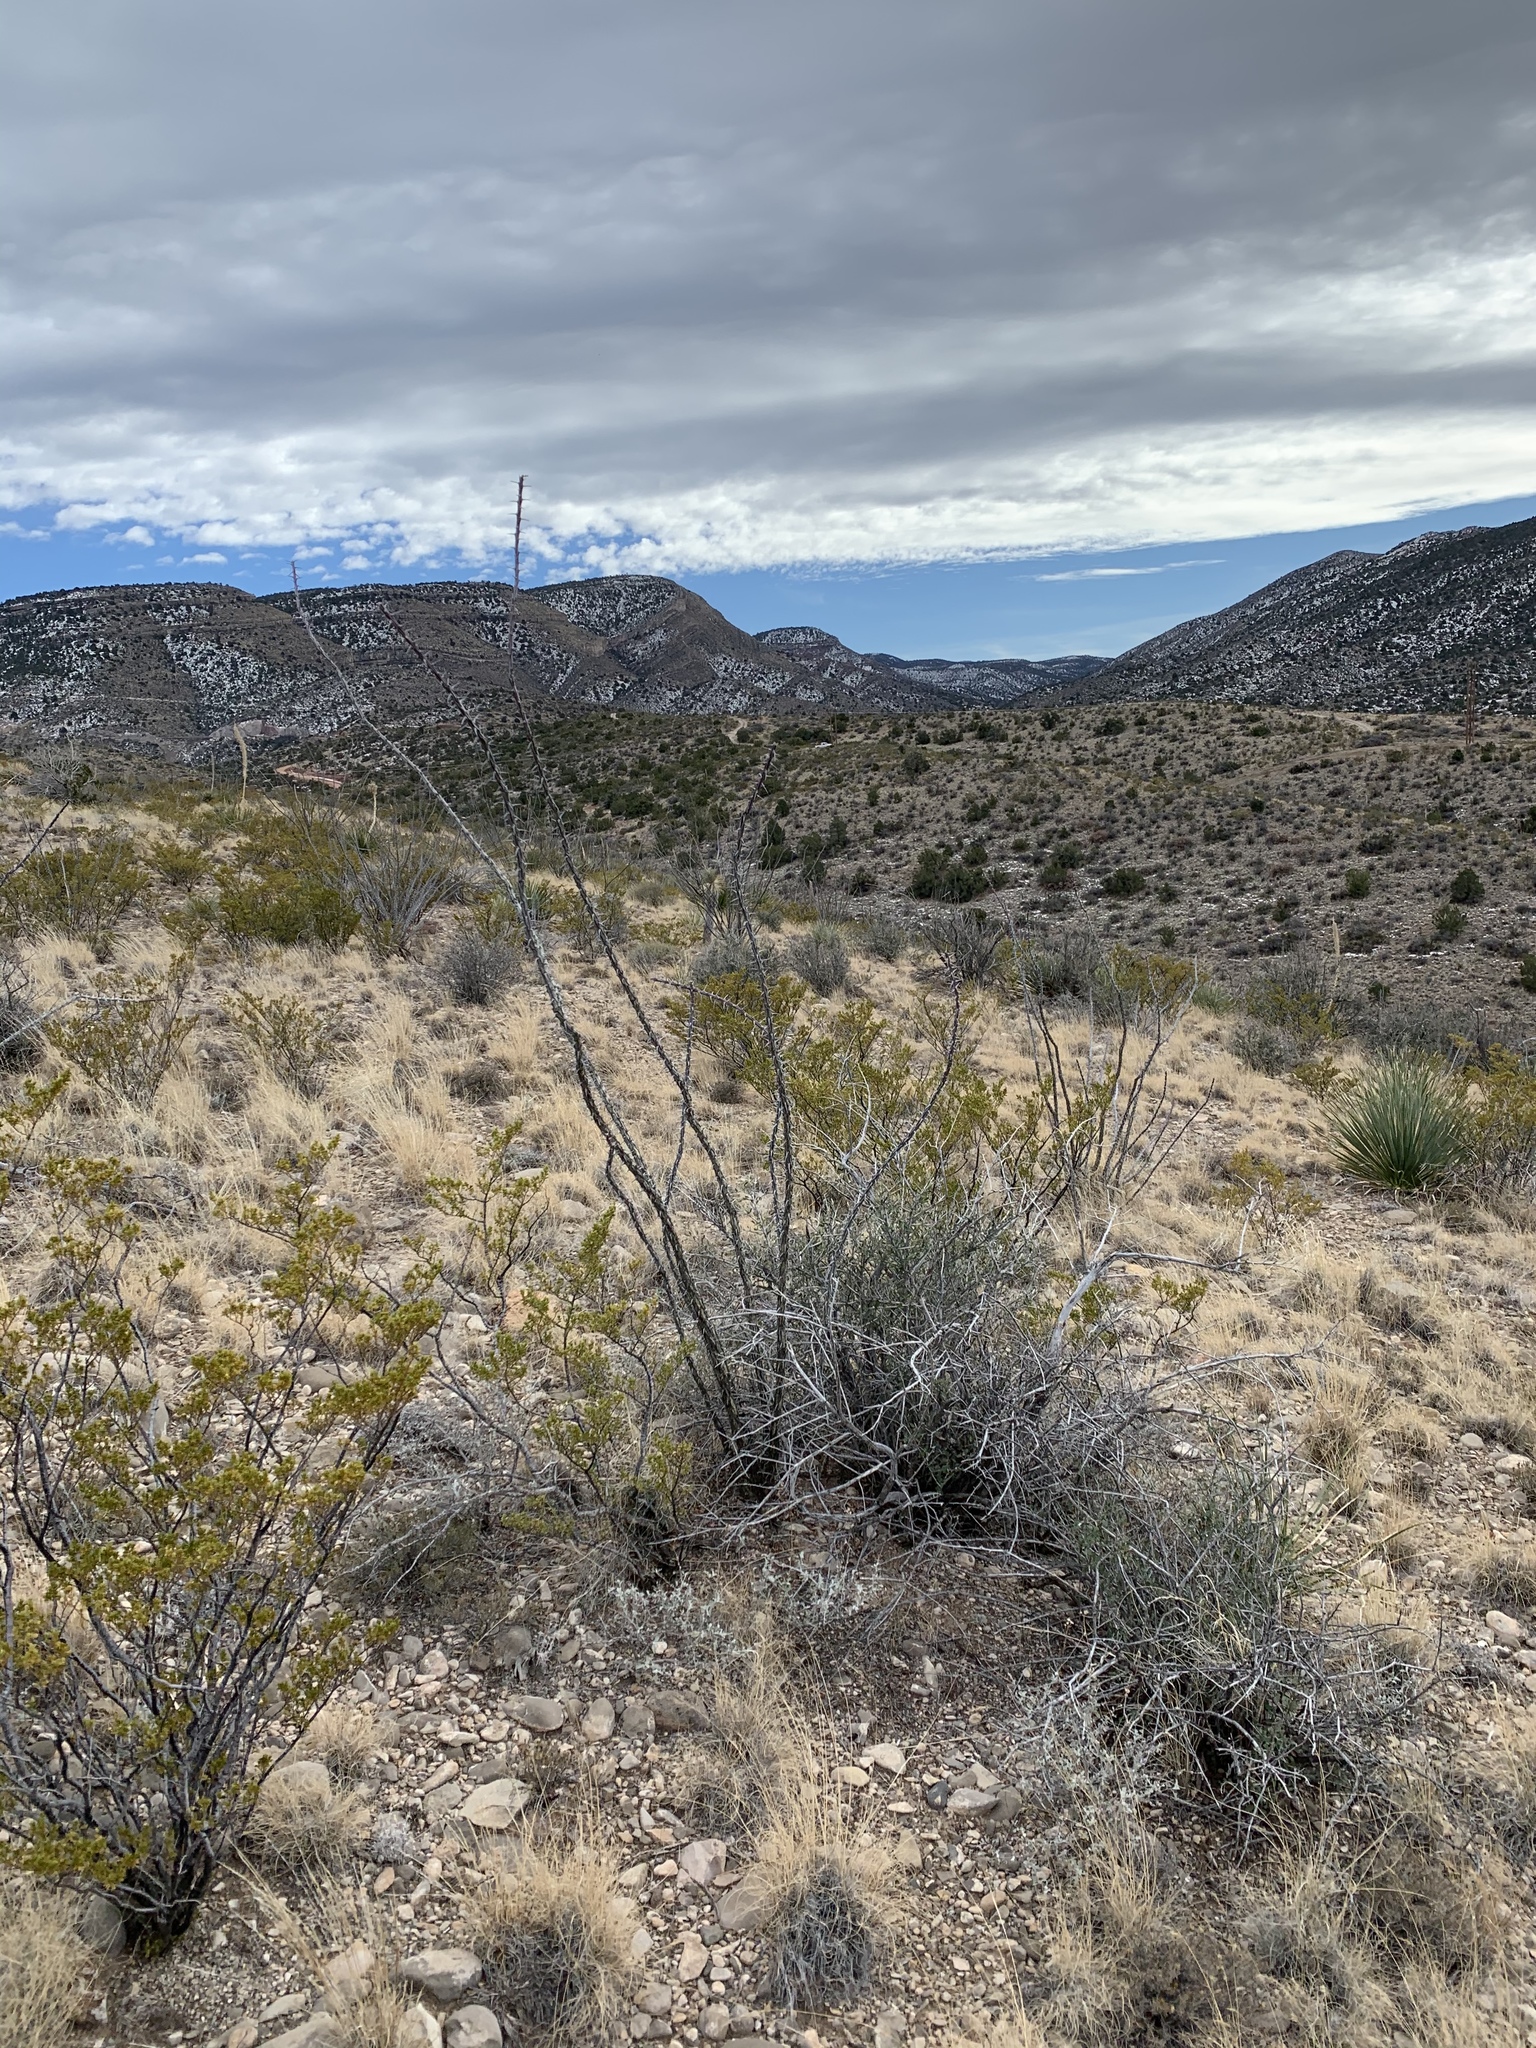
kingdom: Plantae
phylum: Tracheophyta
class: Magnoliopsida
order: Ericales
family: Fouquieriaceae
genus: Fouquieria
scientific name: Fouquieria splendens
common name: Vine-cactus
